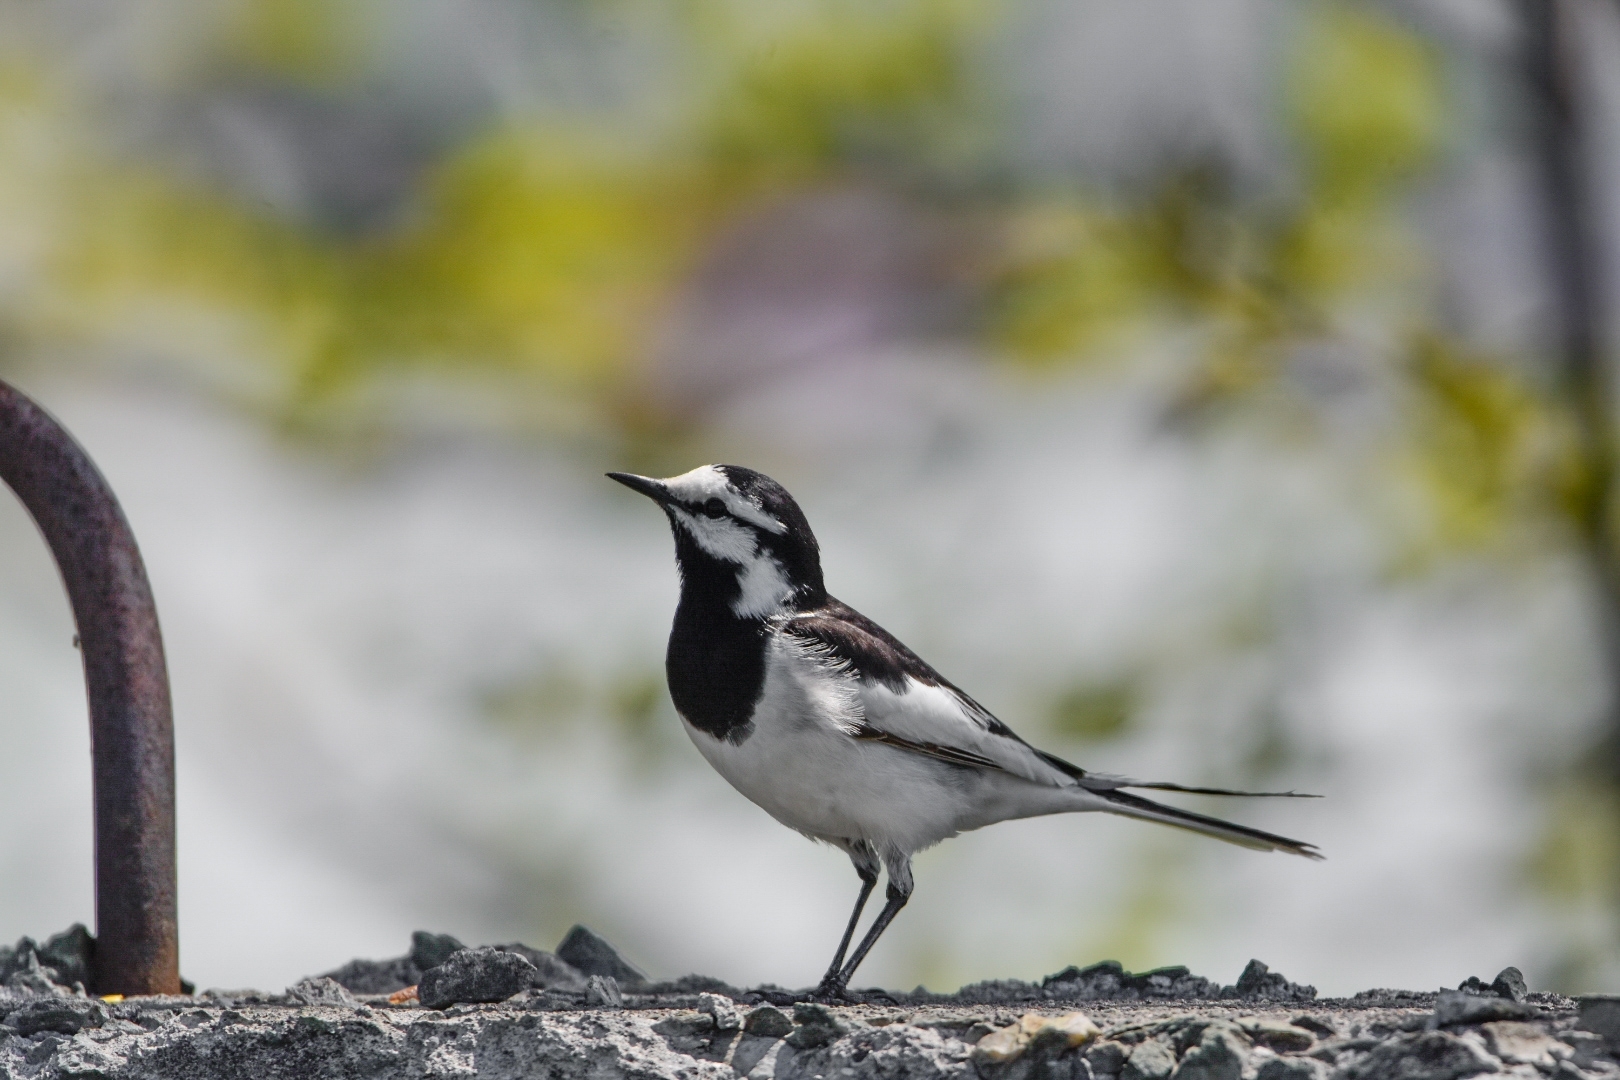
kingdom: Animalia
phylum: Chordata
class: Aves
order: Passeriformes
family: Motacillidae
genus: Motacilla
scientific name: Motacilla alba
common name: White wagtail
